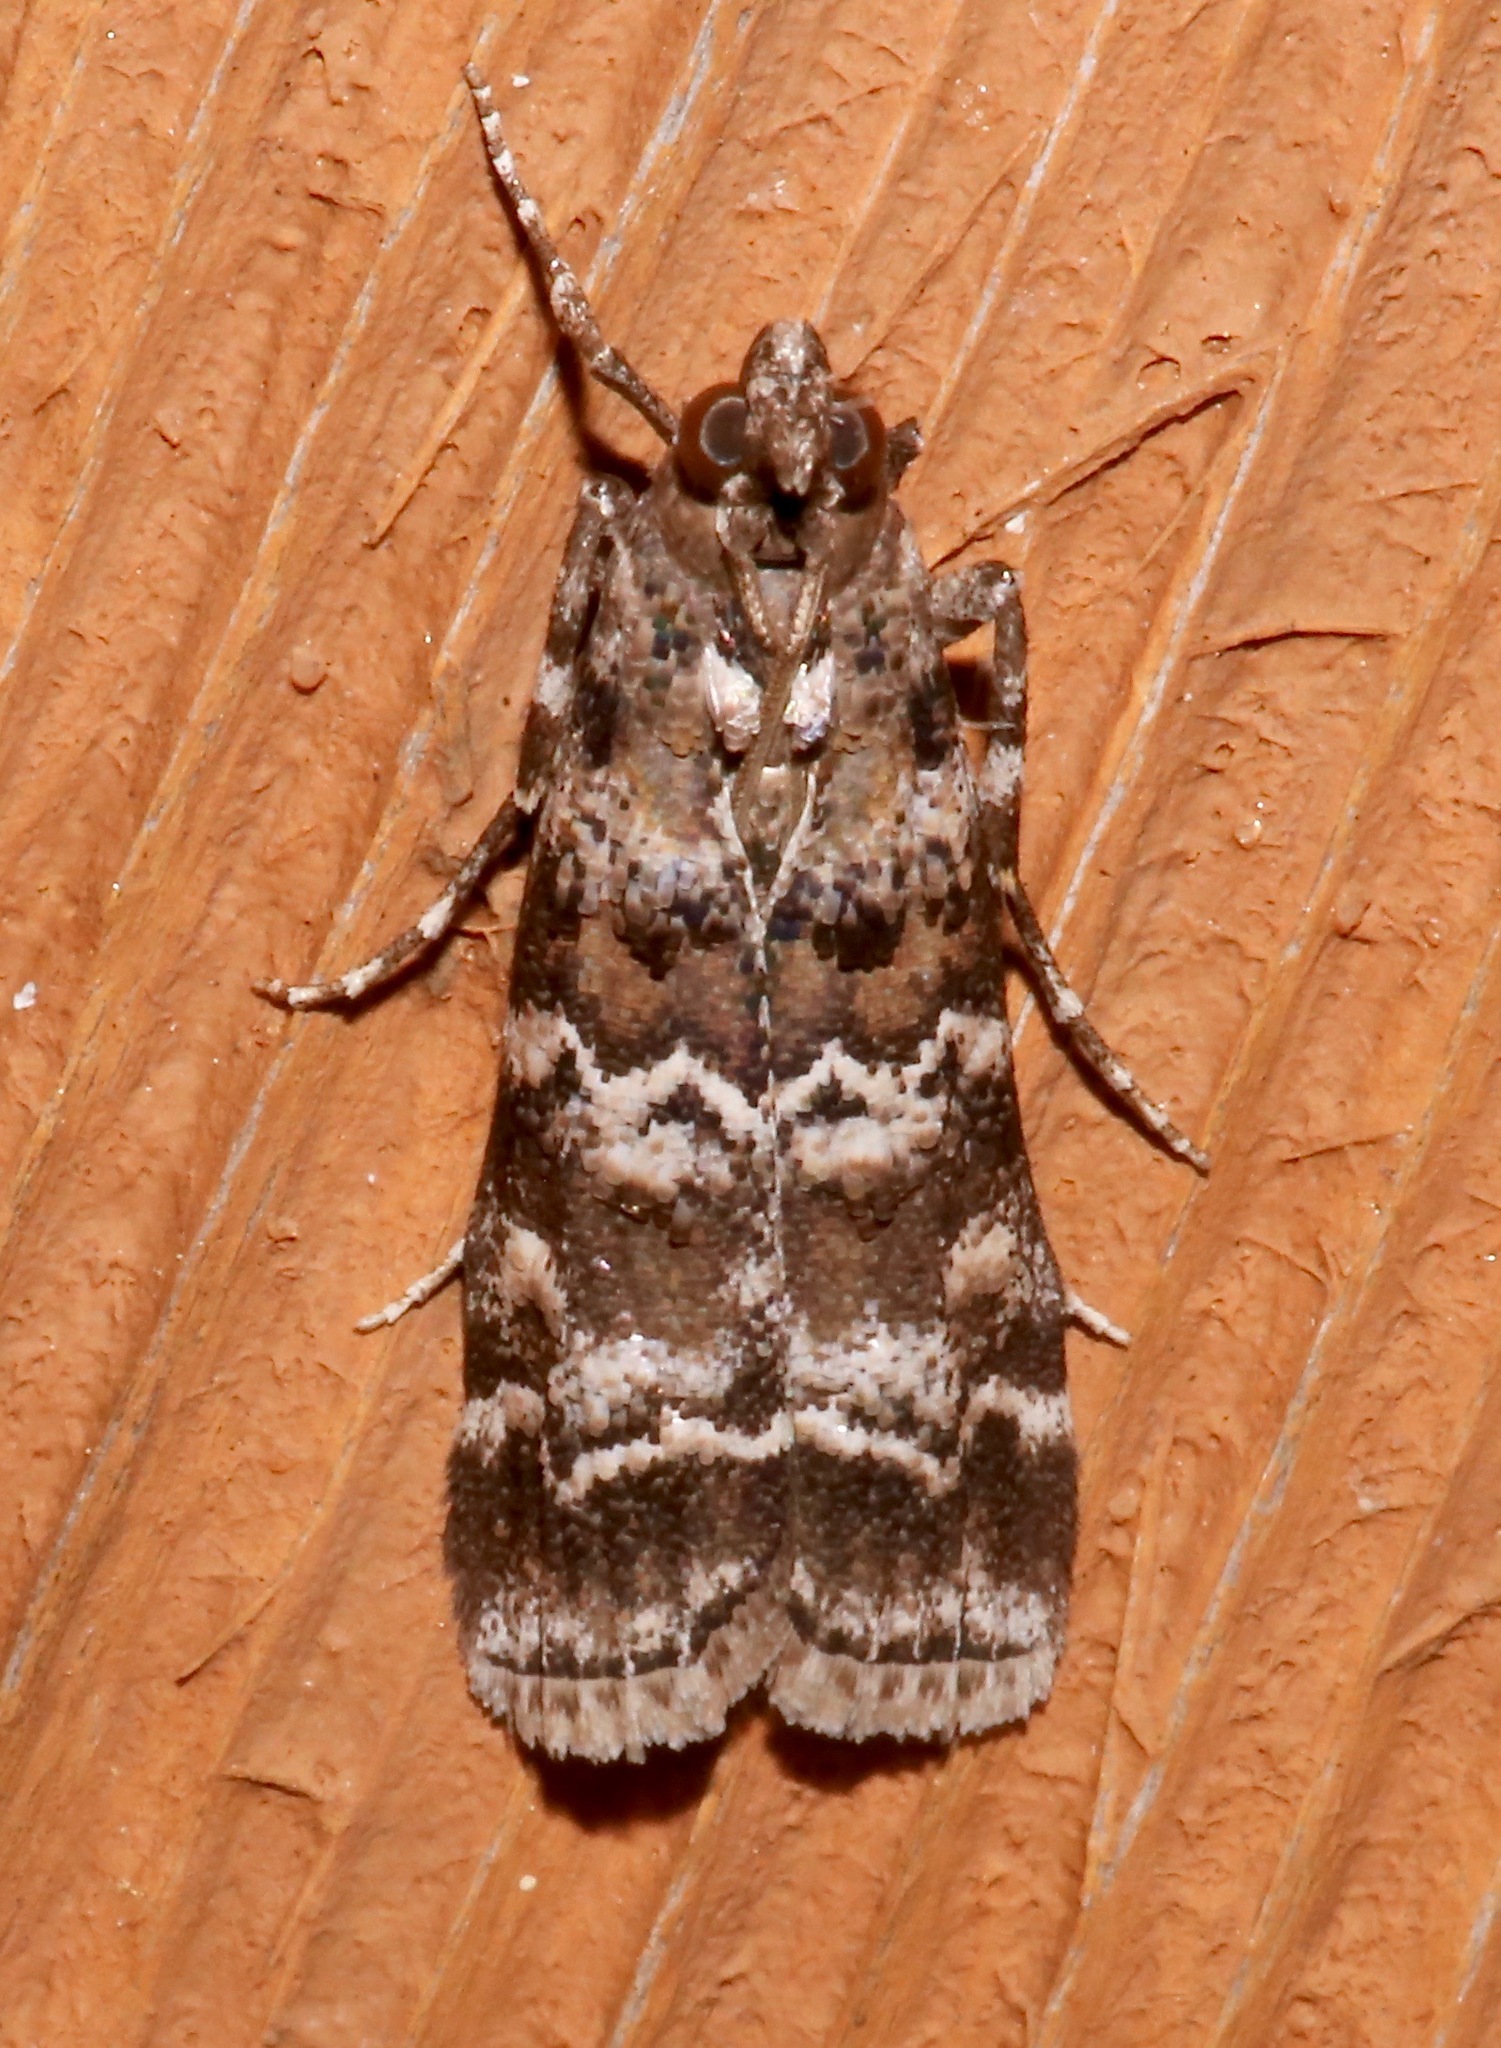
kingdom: Animalia
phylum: Arthropoda
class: Insecta
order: Lepidoptera
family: Pyralidae
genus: Dioryctria
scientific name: Dioryctria amatella
